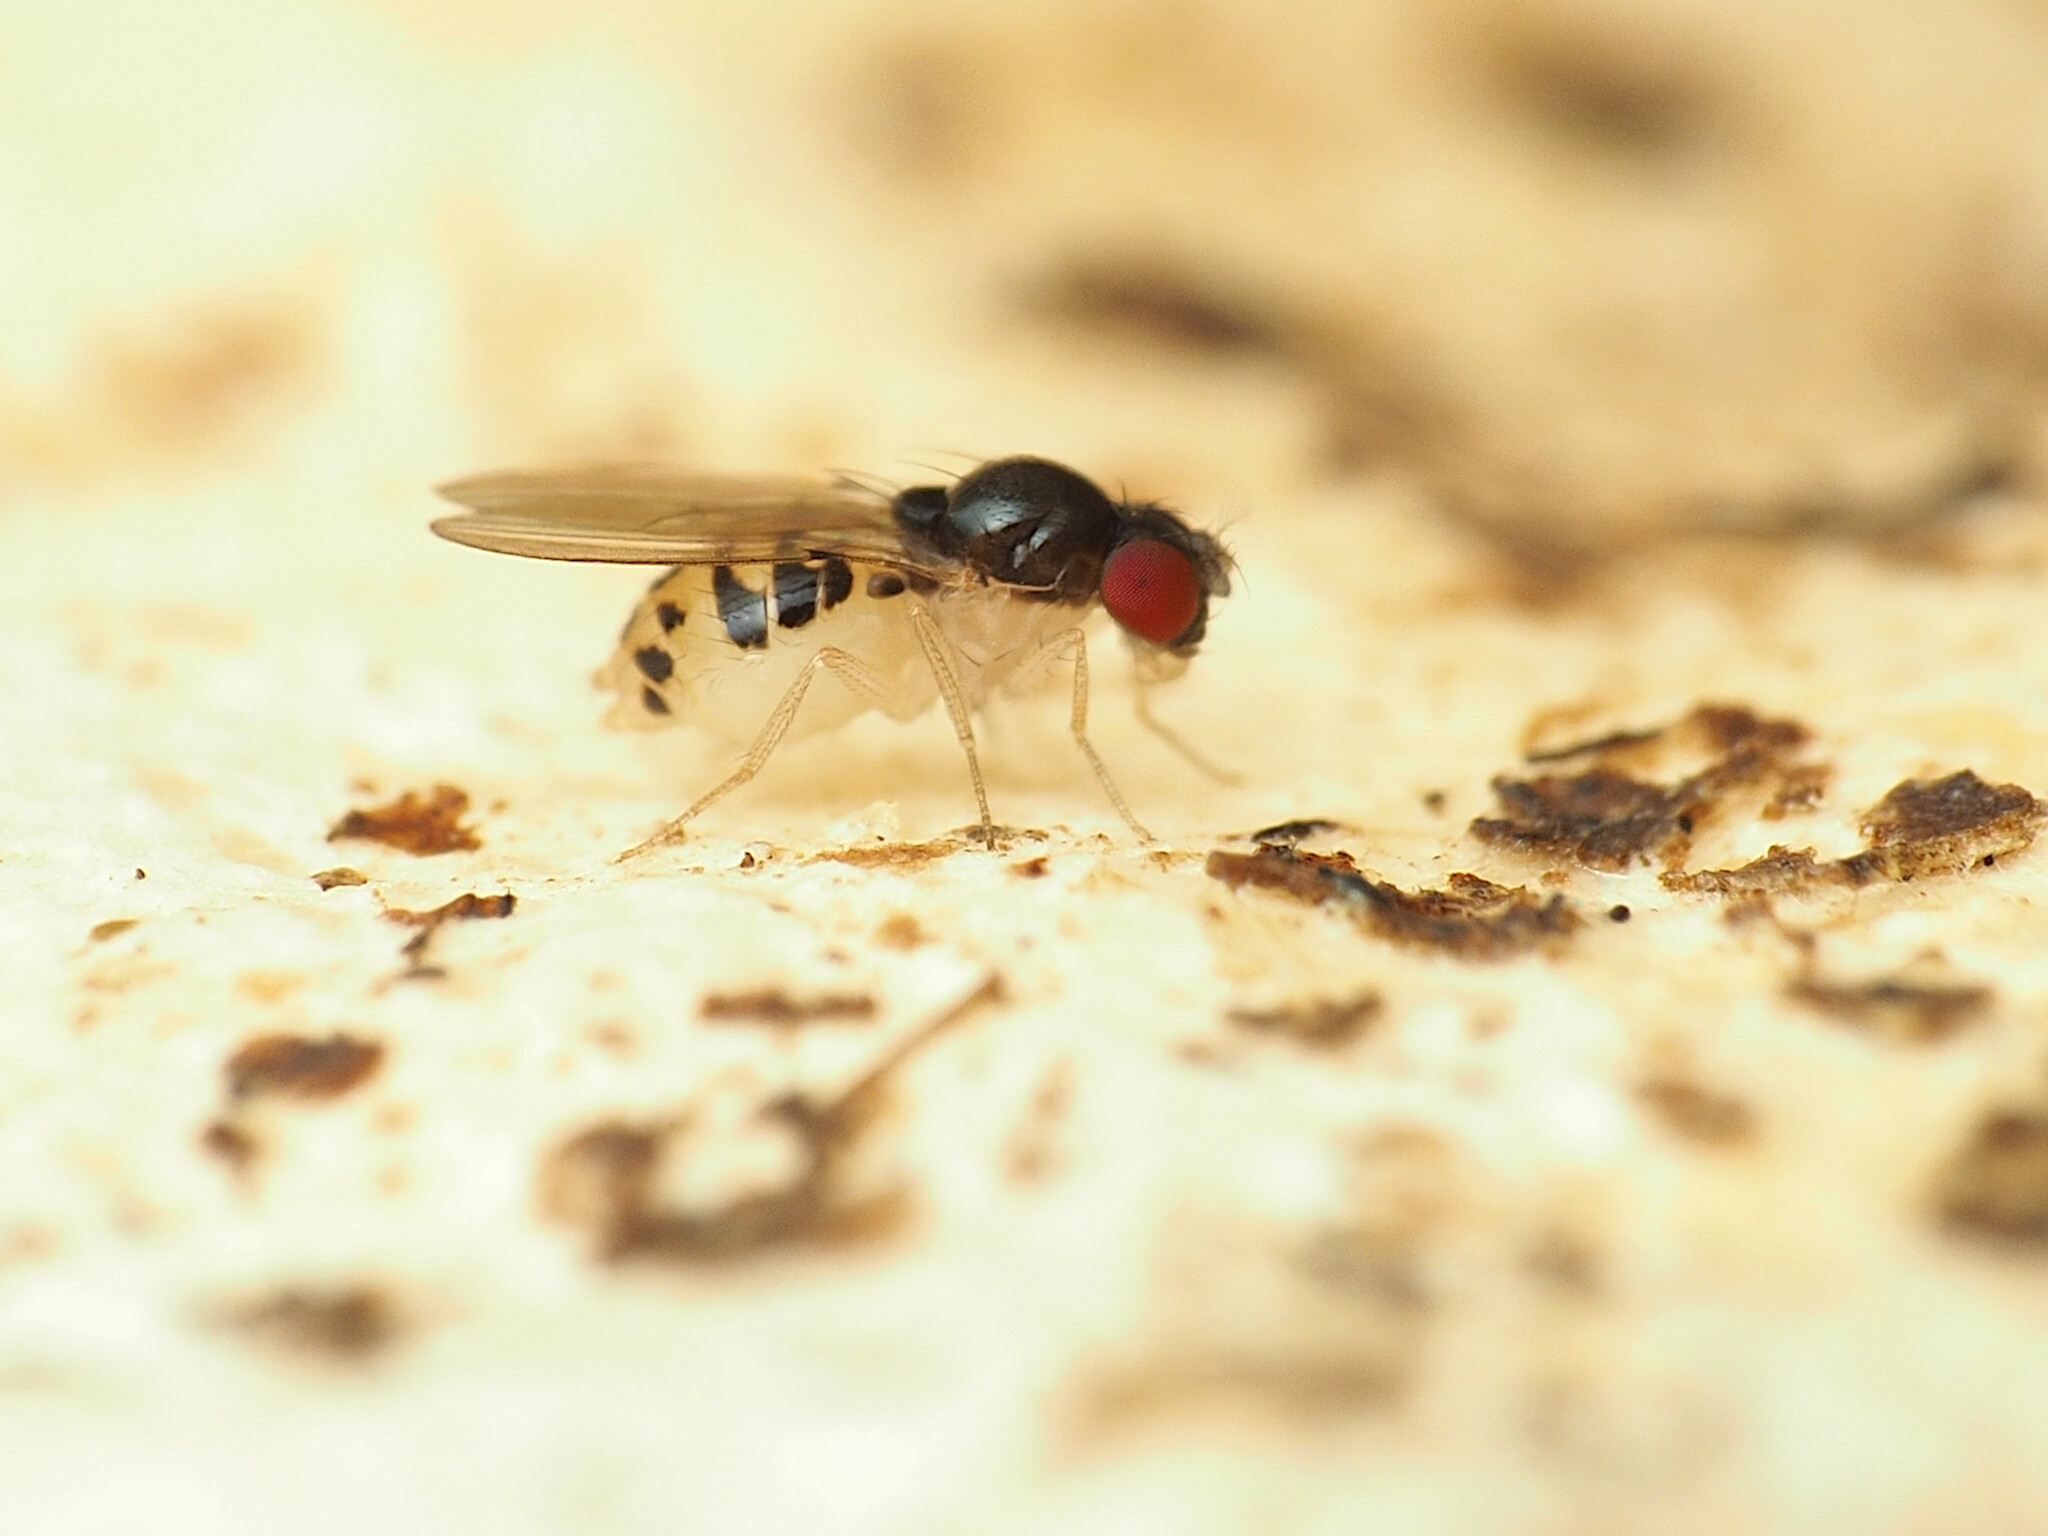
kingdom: Animalia
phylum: Arthropoda
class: Insecta
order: Diptera
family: Drosophilidae
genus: Mycodrosophila
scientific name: Mycodrosophila dimidiata
